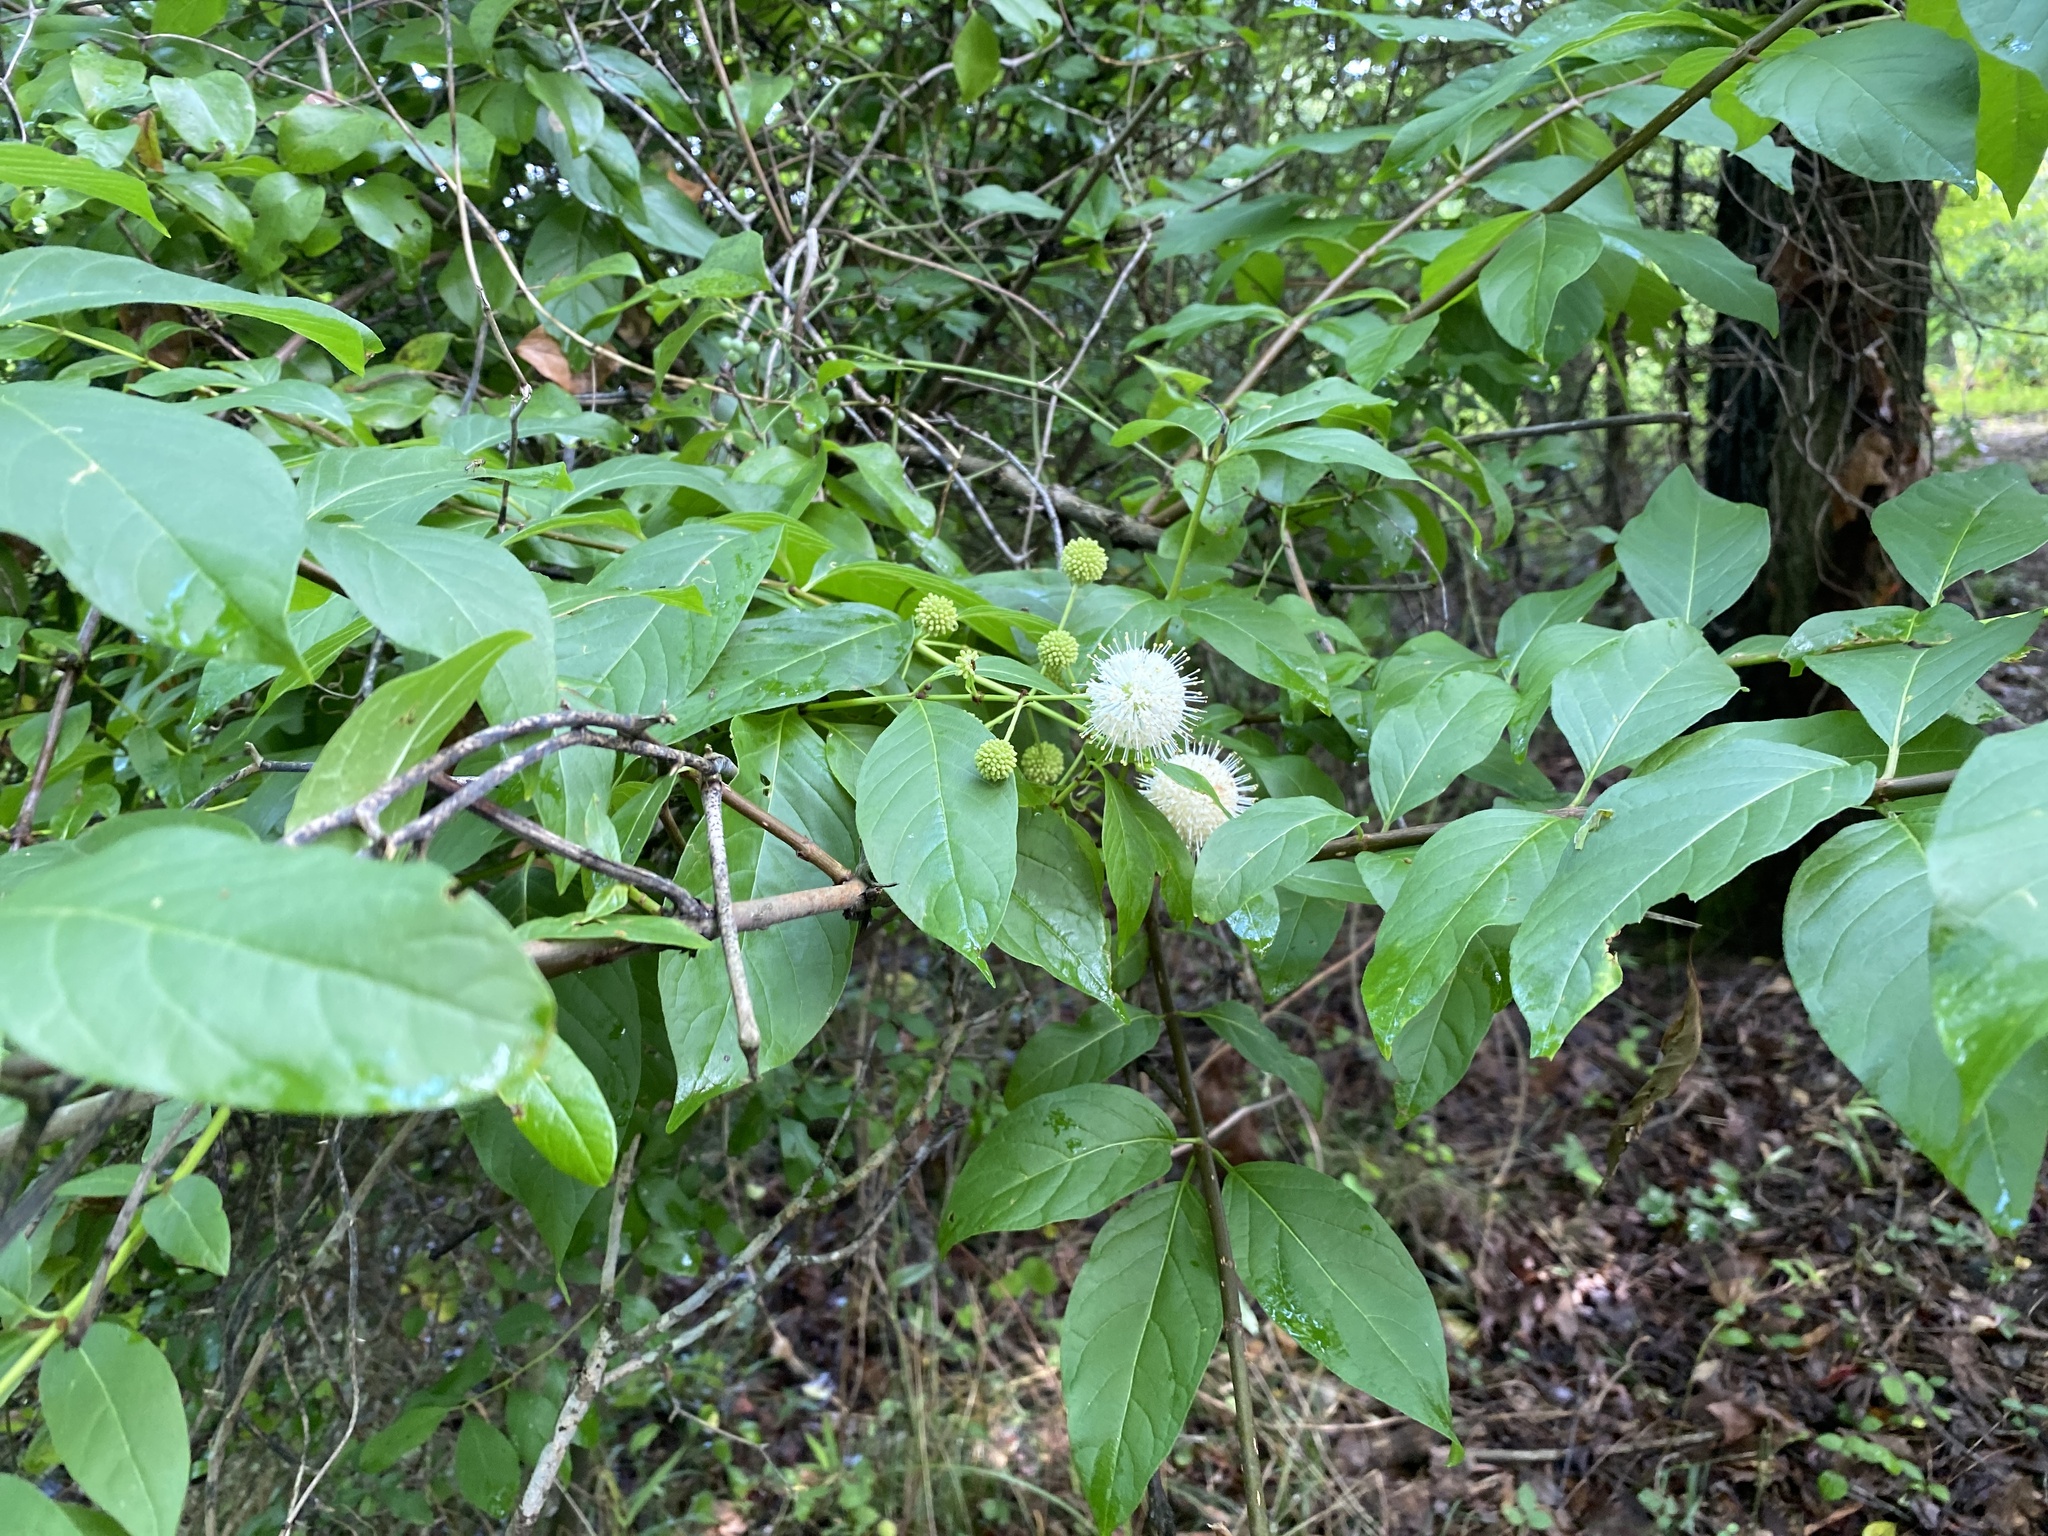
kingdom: Plantae
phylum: Tracheophyta
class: Magnoliopsida
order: Gentianales
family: Rubiaceae
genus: Cephalanthus
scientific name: Cephalanthus occidentalis
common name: Button-willow
